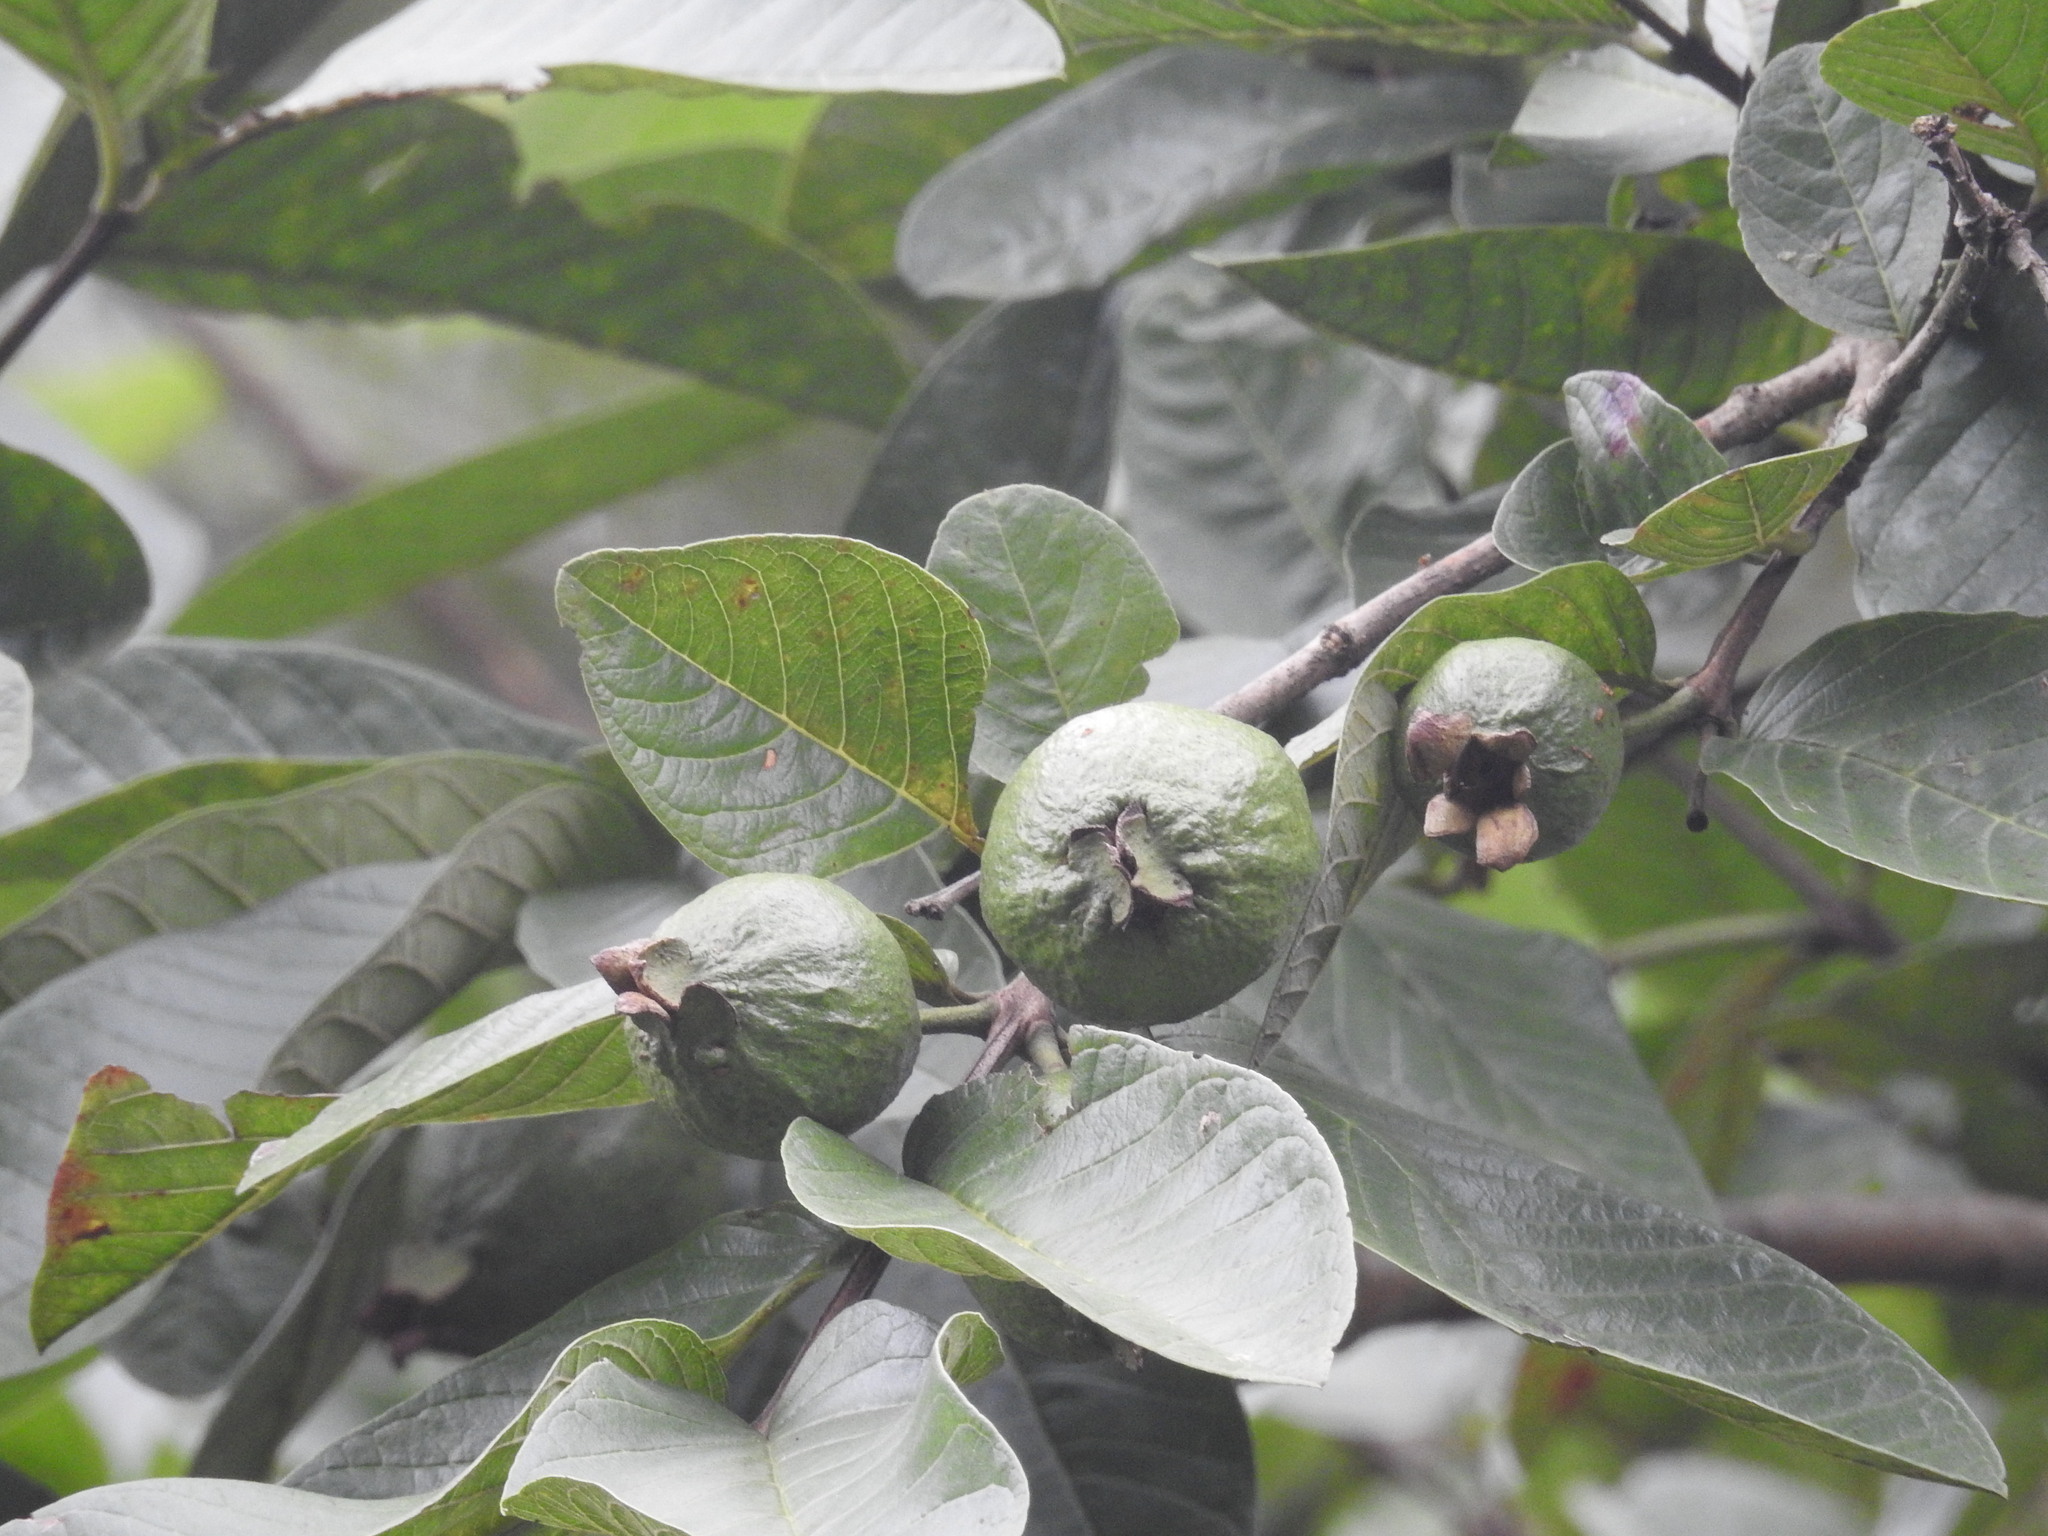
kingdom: Plantae
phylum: Tracheophyta
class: Magnoliopsida
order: Myrtales
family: Myrtaceae
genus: Psidium
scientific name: Psidium guajava
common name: Guava
